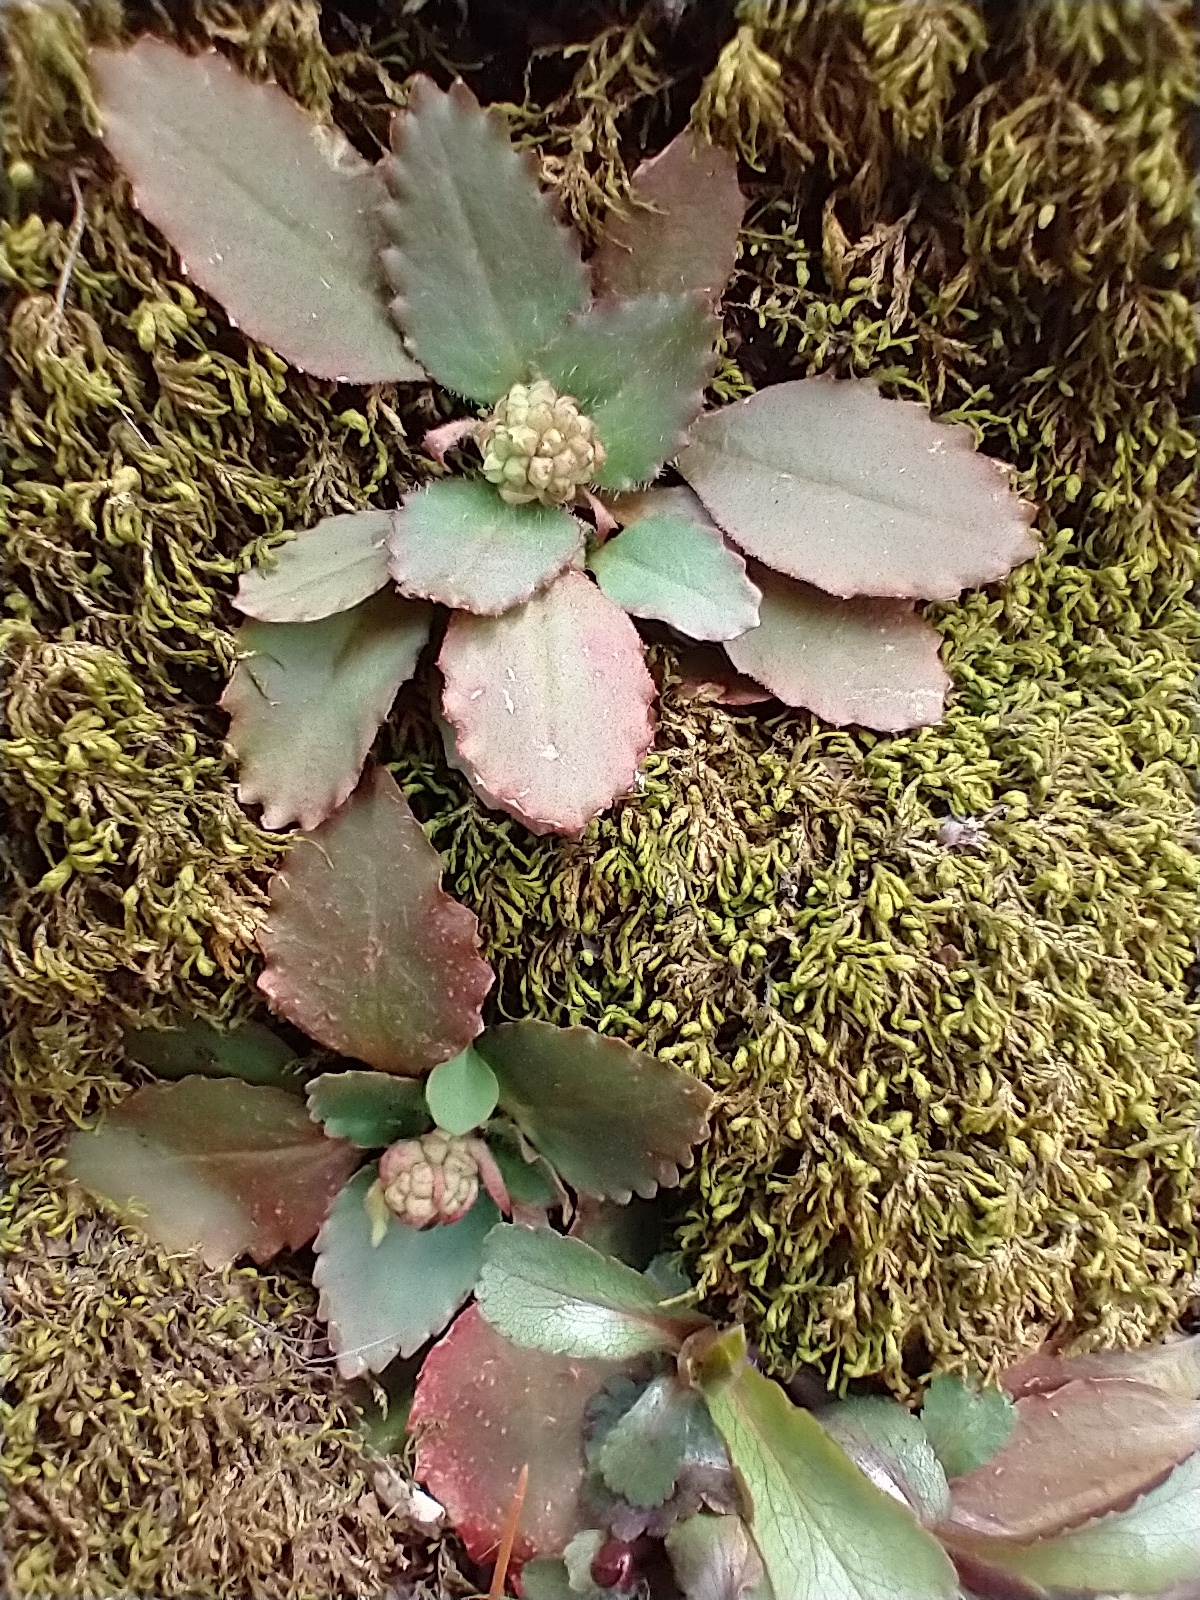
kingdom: Plantae
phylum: Tracheophyta
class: Magnoliopsida
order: Saxifragales
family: Saxifragaceae
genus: Micranthes
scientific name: Micranthes virginiensis
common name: Early saxifrage
